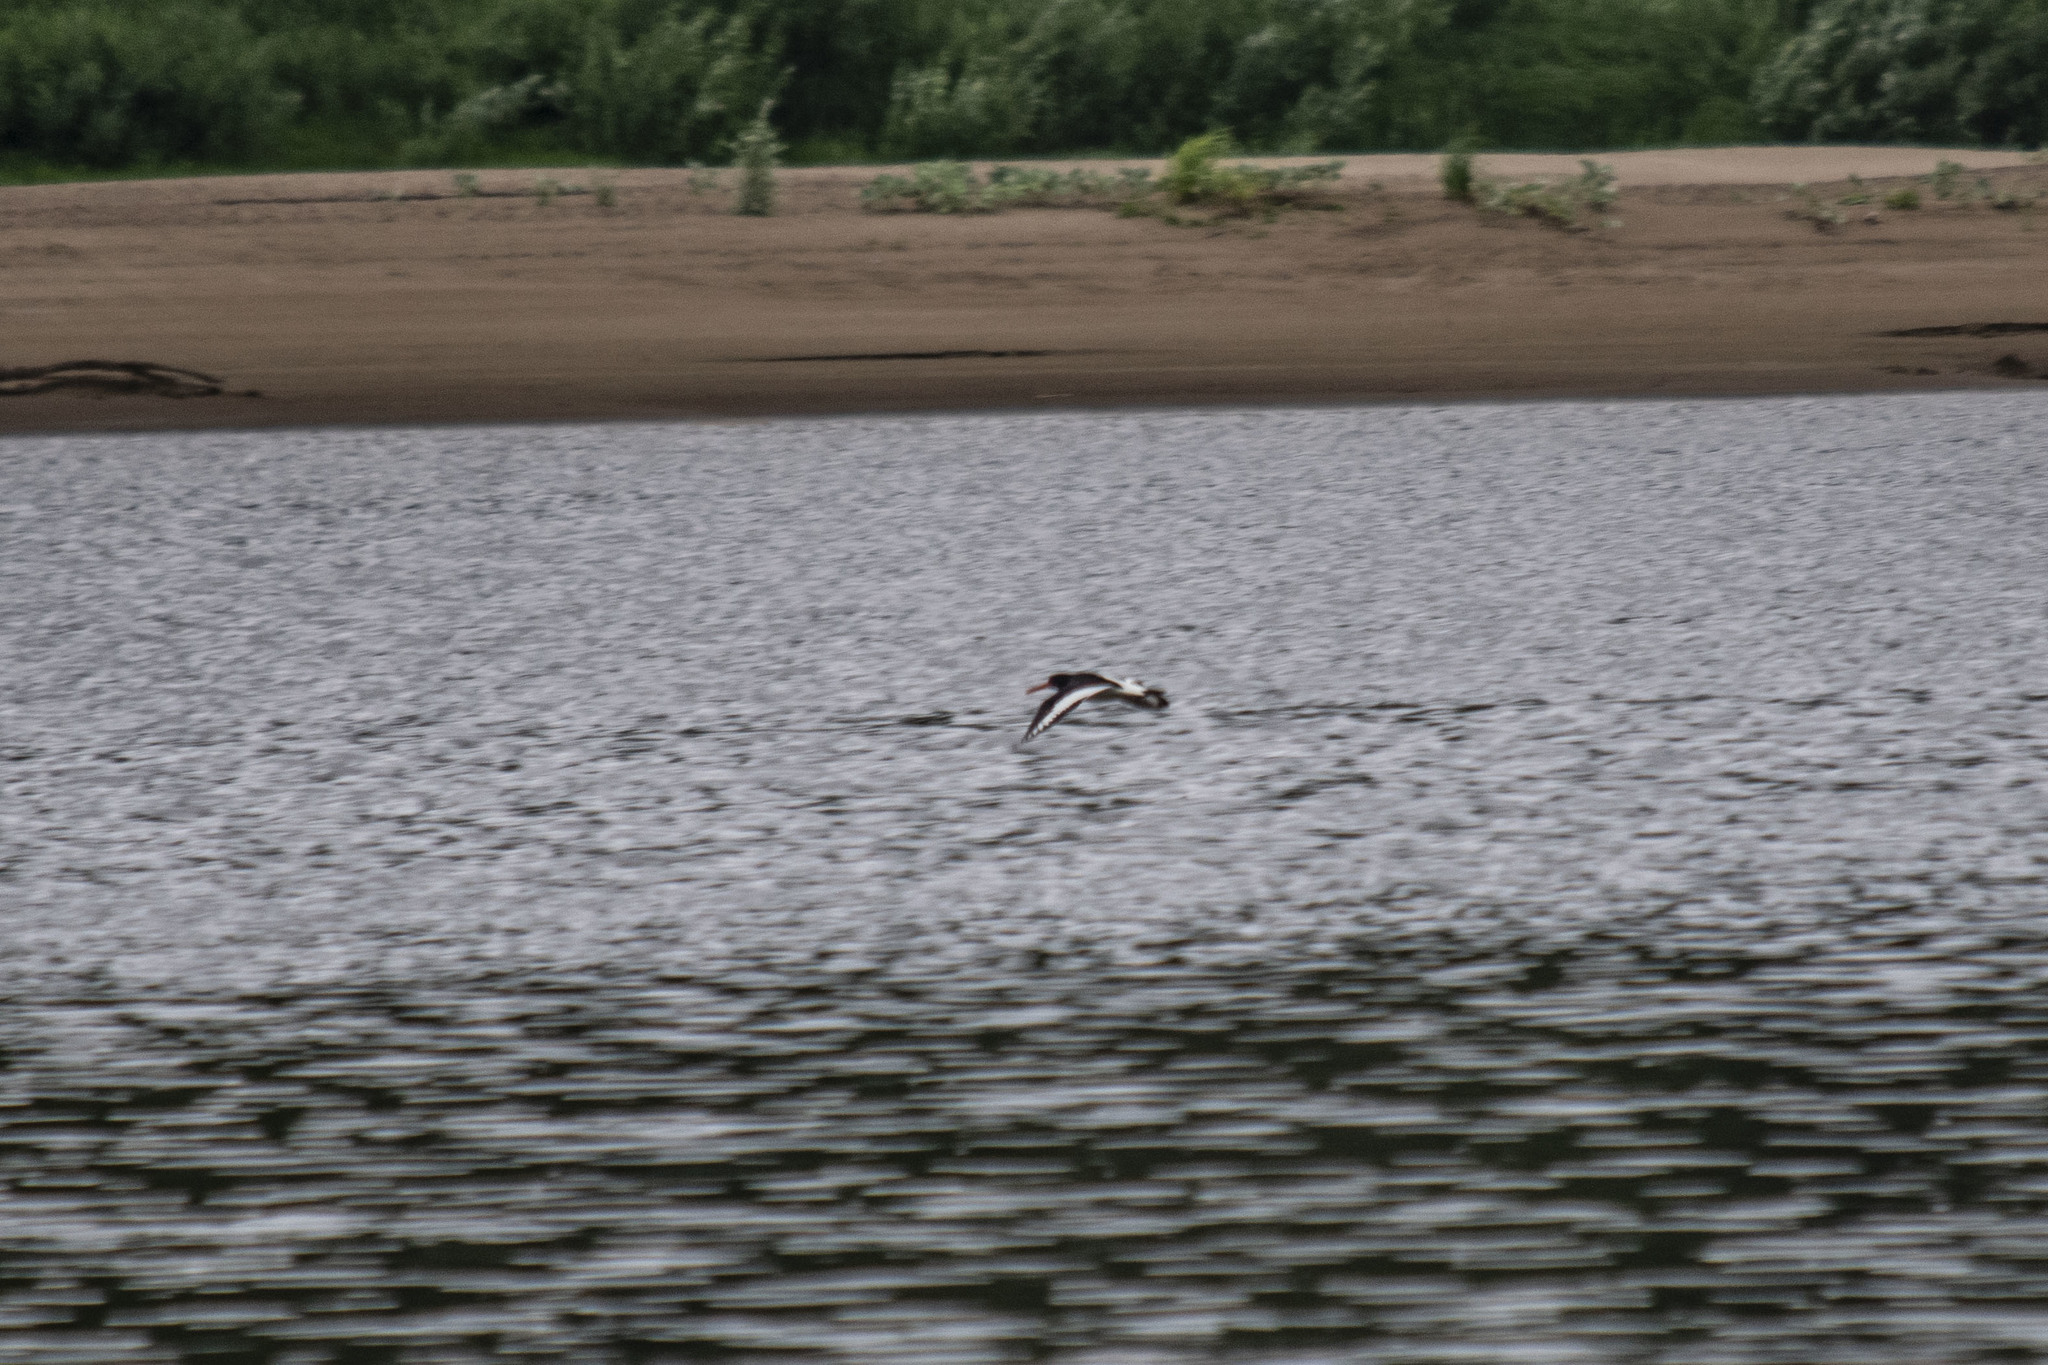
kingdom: Animalia
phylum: Chordata
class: Aves
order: Charadriiformes
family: Haematopodidae
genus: Haematopus
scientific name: Haematopus ostralegus
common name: Eurasian oystercatcher
